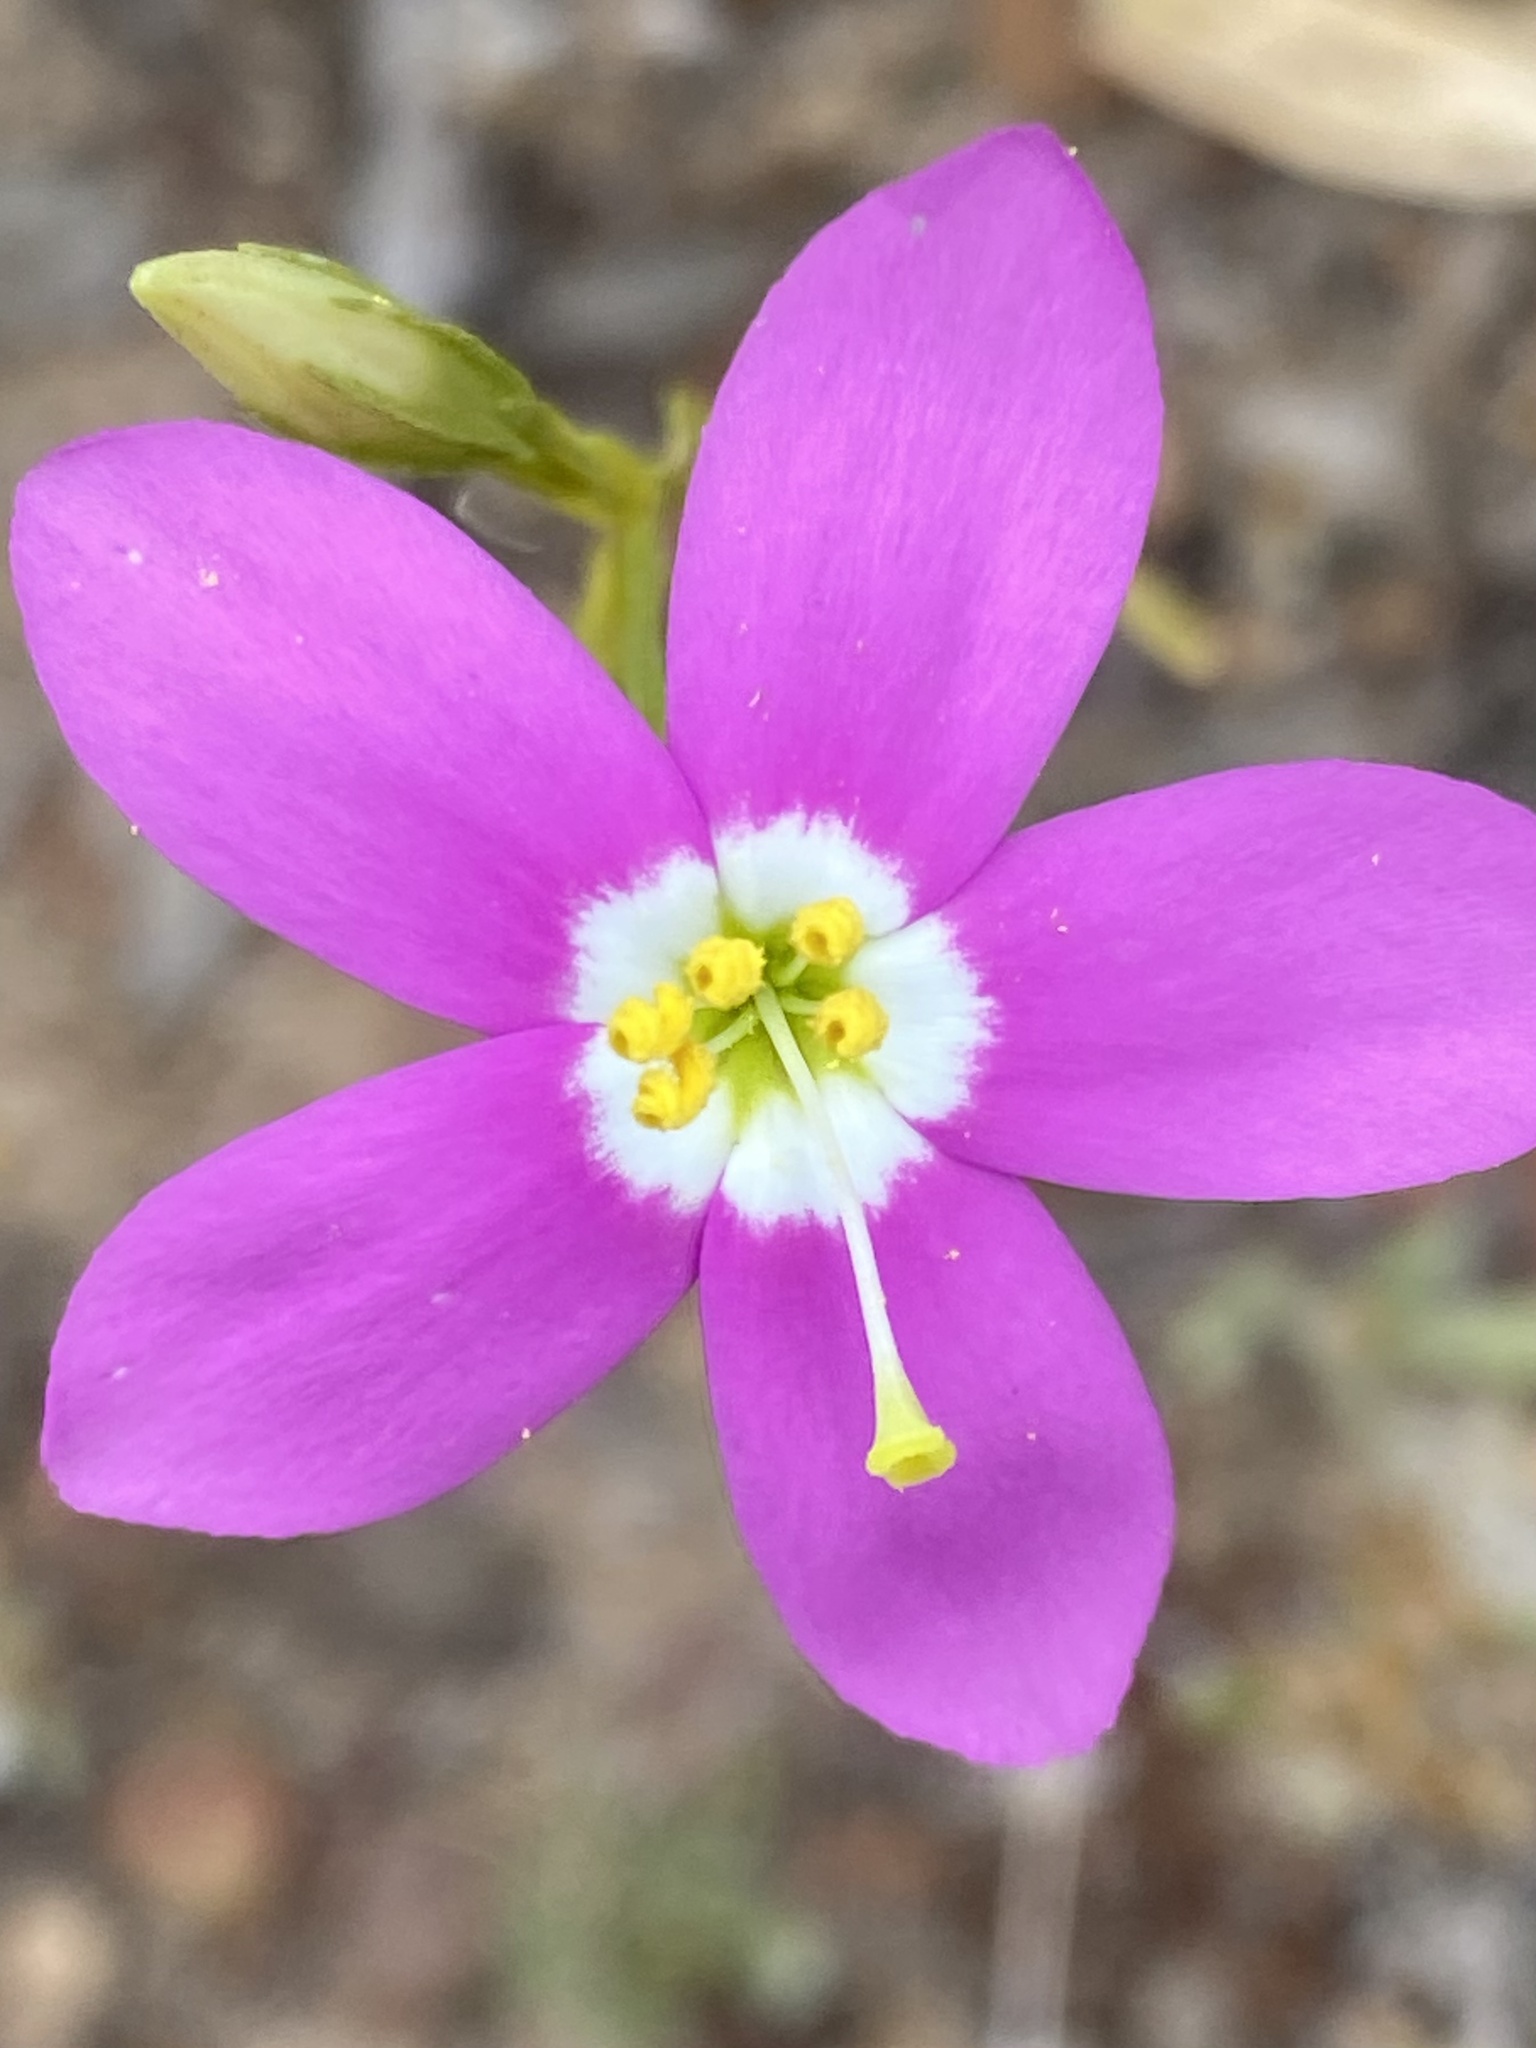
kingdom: Plantae
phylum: Tracheophyta
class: Magnoliopsida
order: Gentianales
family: Gentianaceae
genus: Zeltnera
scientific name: Zeltnera venusta
